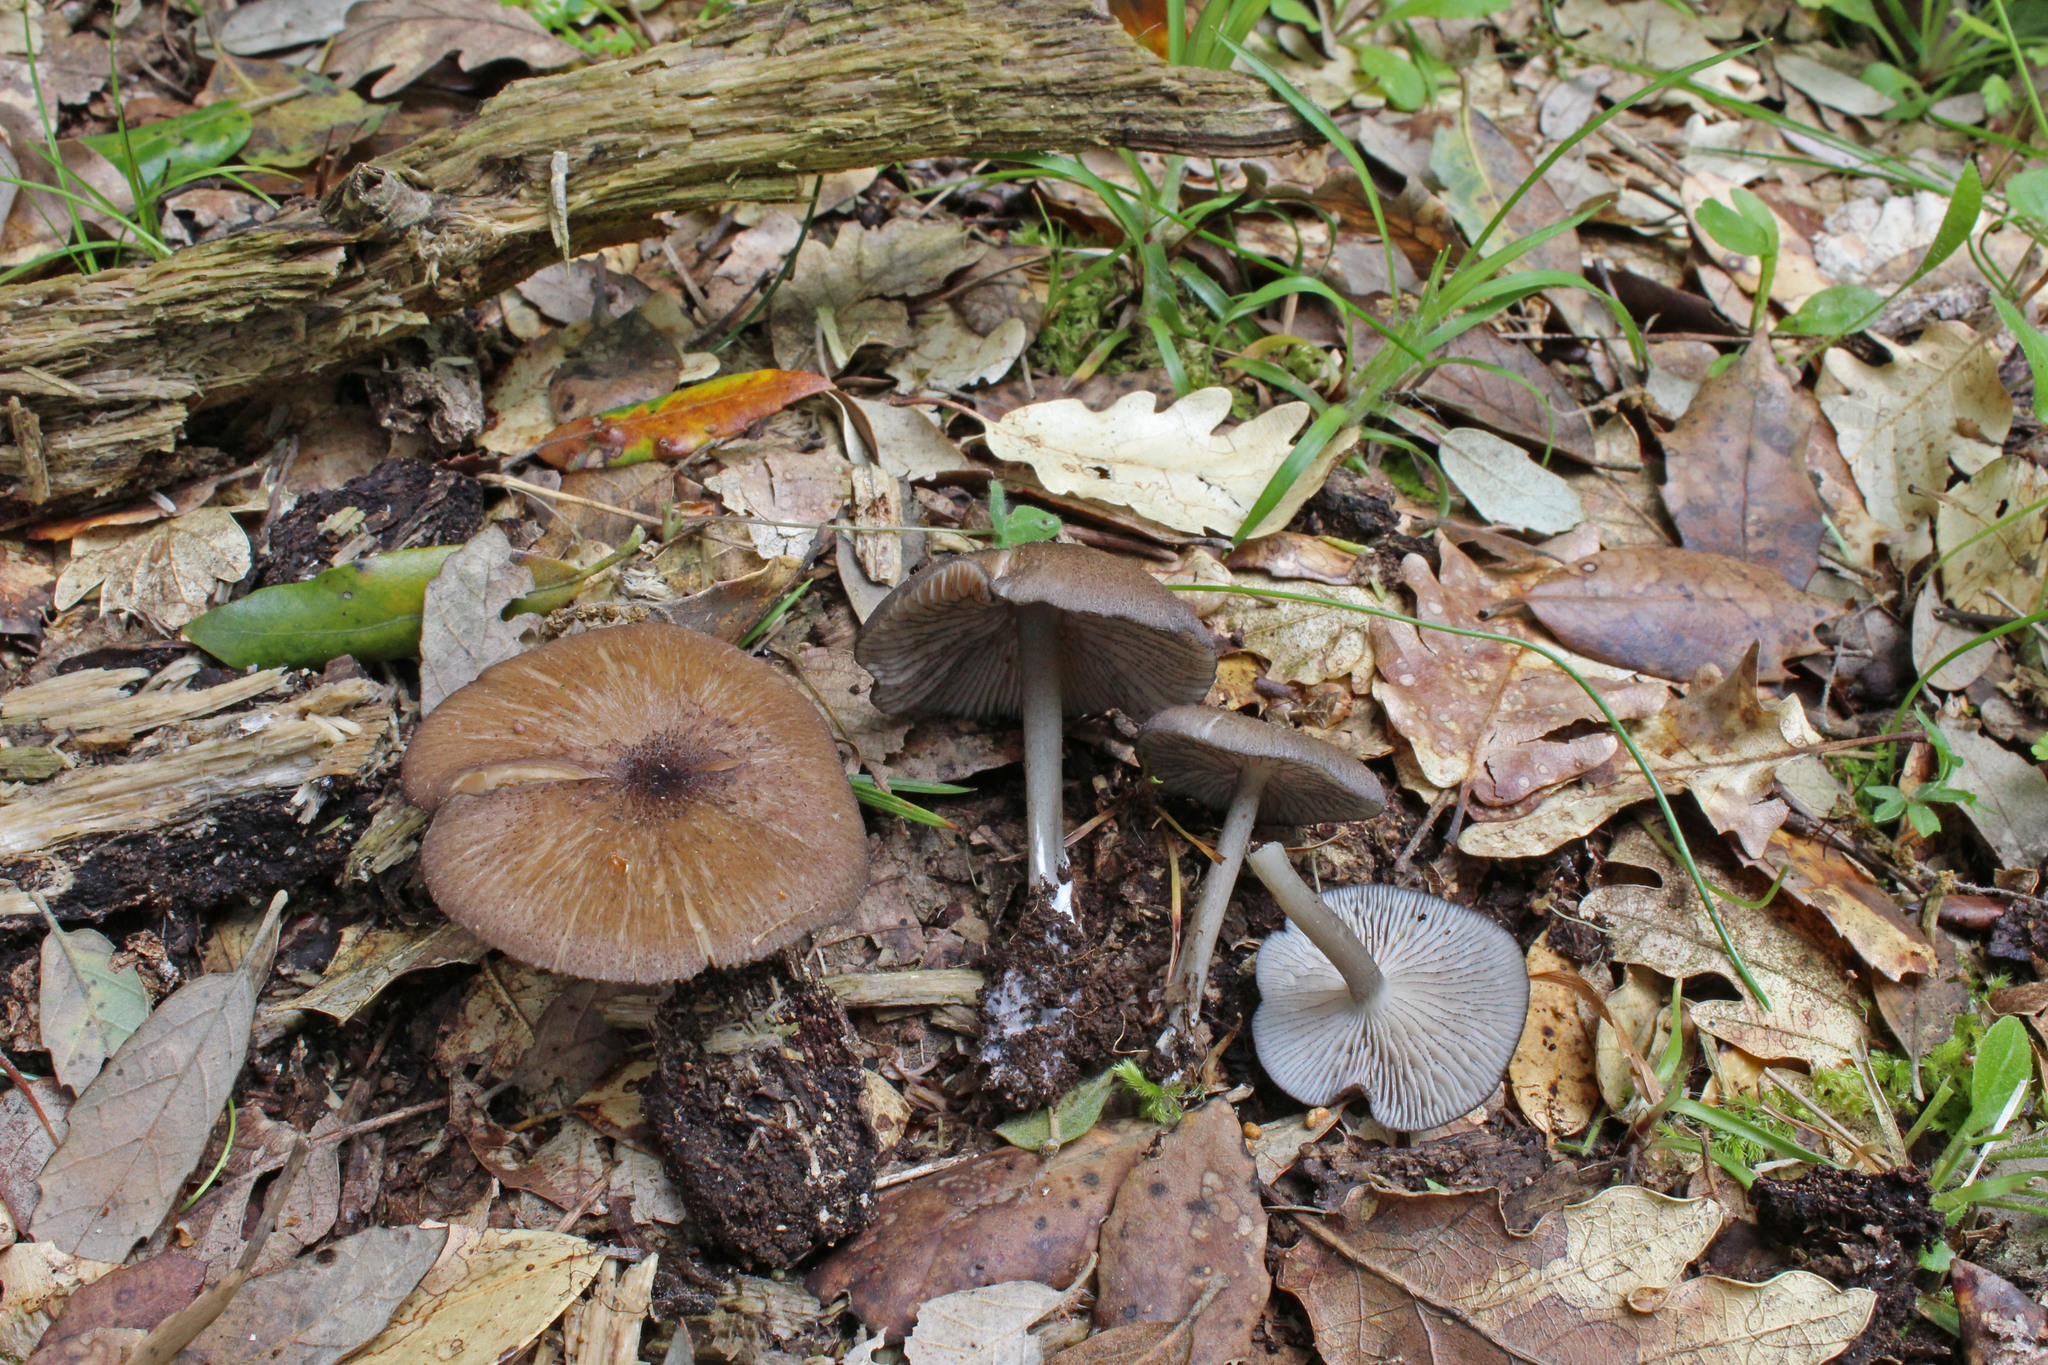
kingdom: Fungi
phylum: Basidiomycota
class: Agaricomycetes
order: Agaricales
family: Entolomataceae
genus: Entoloma
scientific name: Entoloma querquedula
